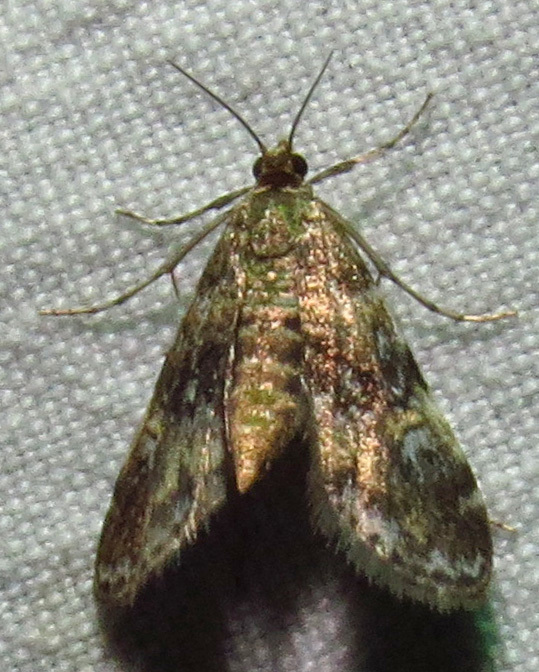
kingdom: Animalia
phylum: Arthropoda
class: Insecta
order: Lepidoptera
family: Crambidae
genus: Elophila
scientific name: Elophila obliteralis
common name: Waterlily leafcutter moth
